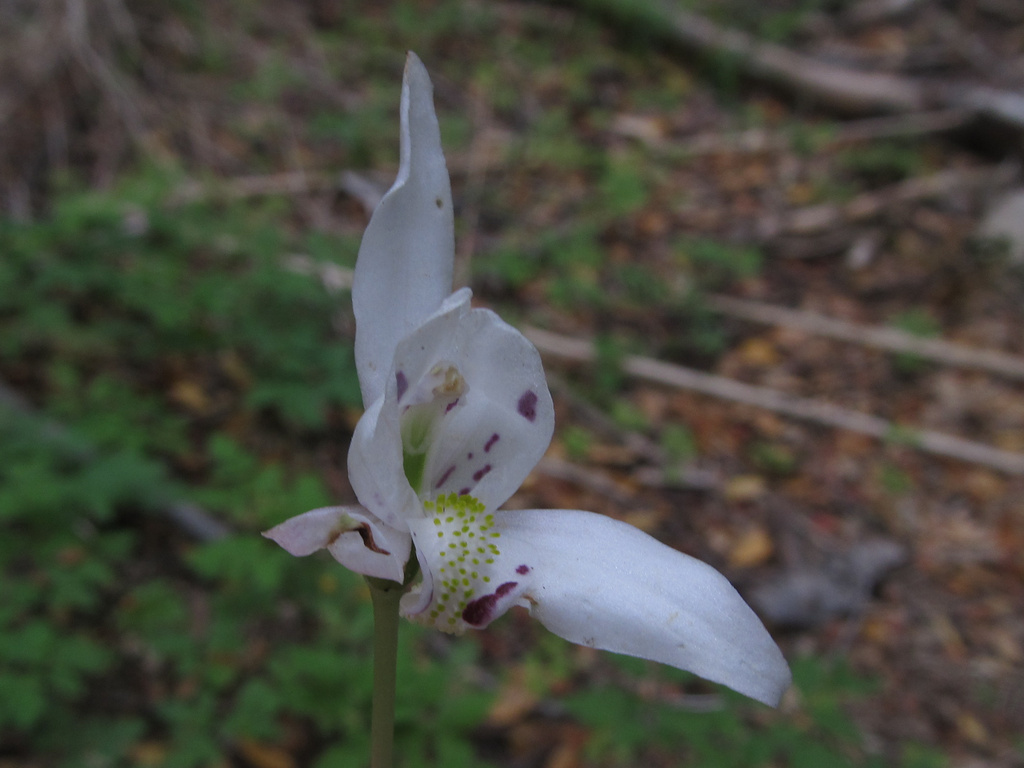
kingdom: Plantae
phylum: Tracheophyta
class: Liliopsida
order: Asparagales
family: Orchidaceae
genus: Codonorchis
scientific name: Codonorchis lessonii
